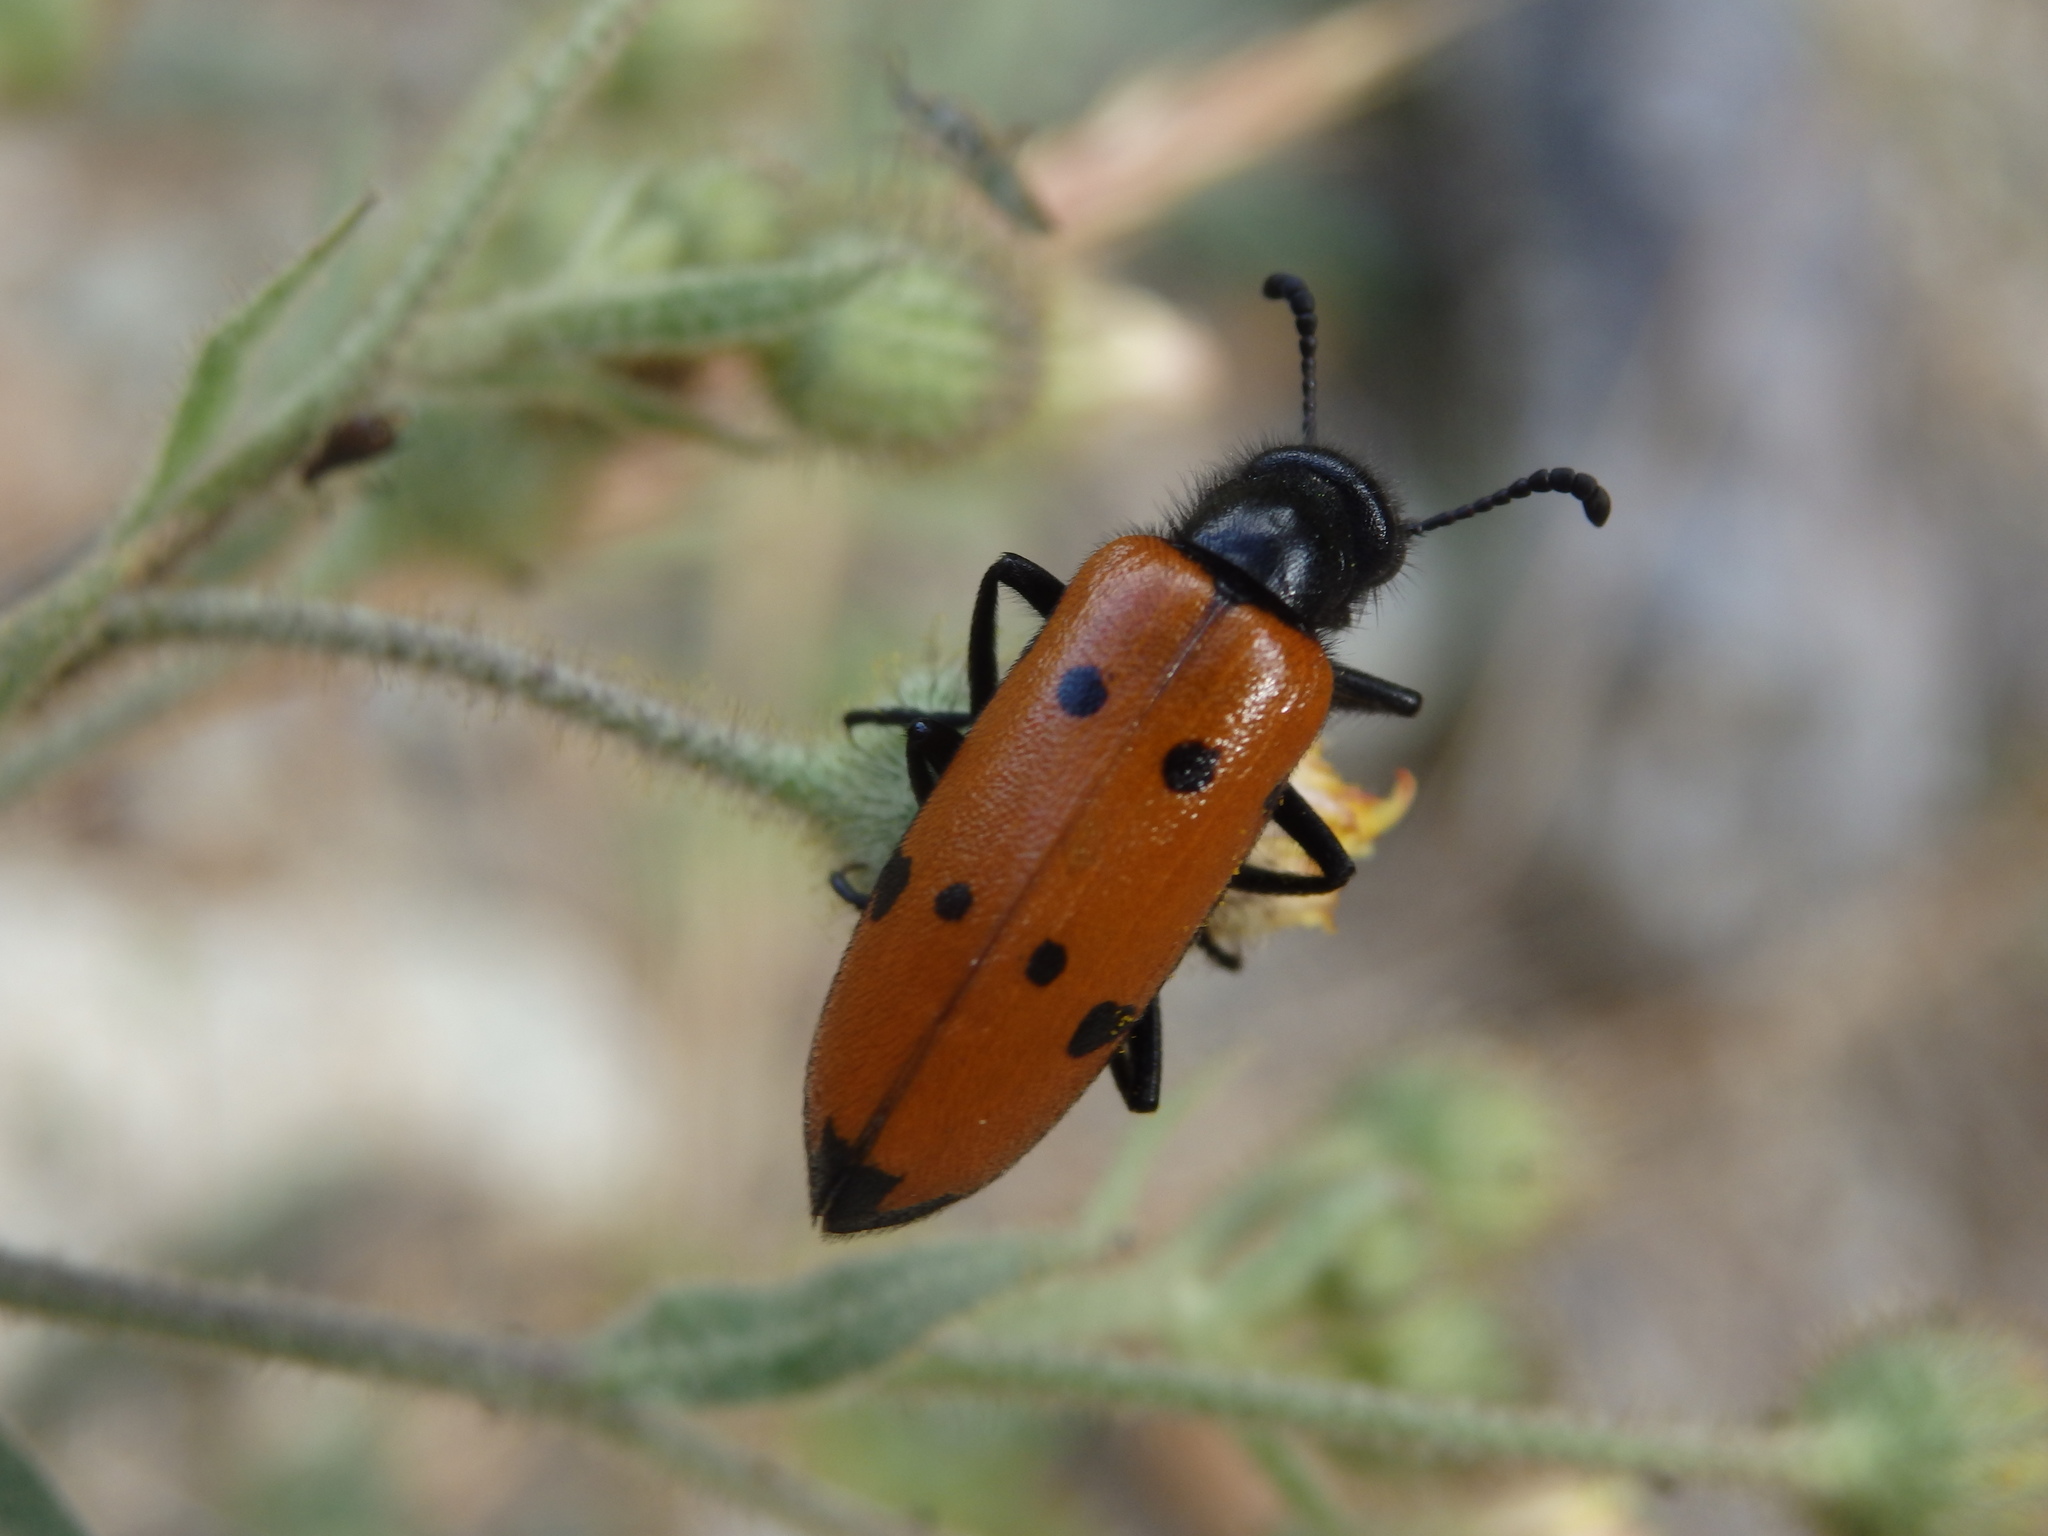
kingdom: Animalia
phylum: Arthropoda
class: Insecta
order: Coleoptera
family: Meloidae
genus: Mylabris
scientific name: Mylabris quadripunctata
